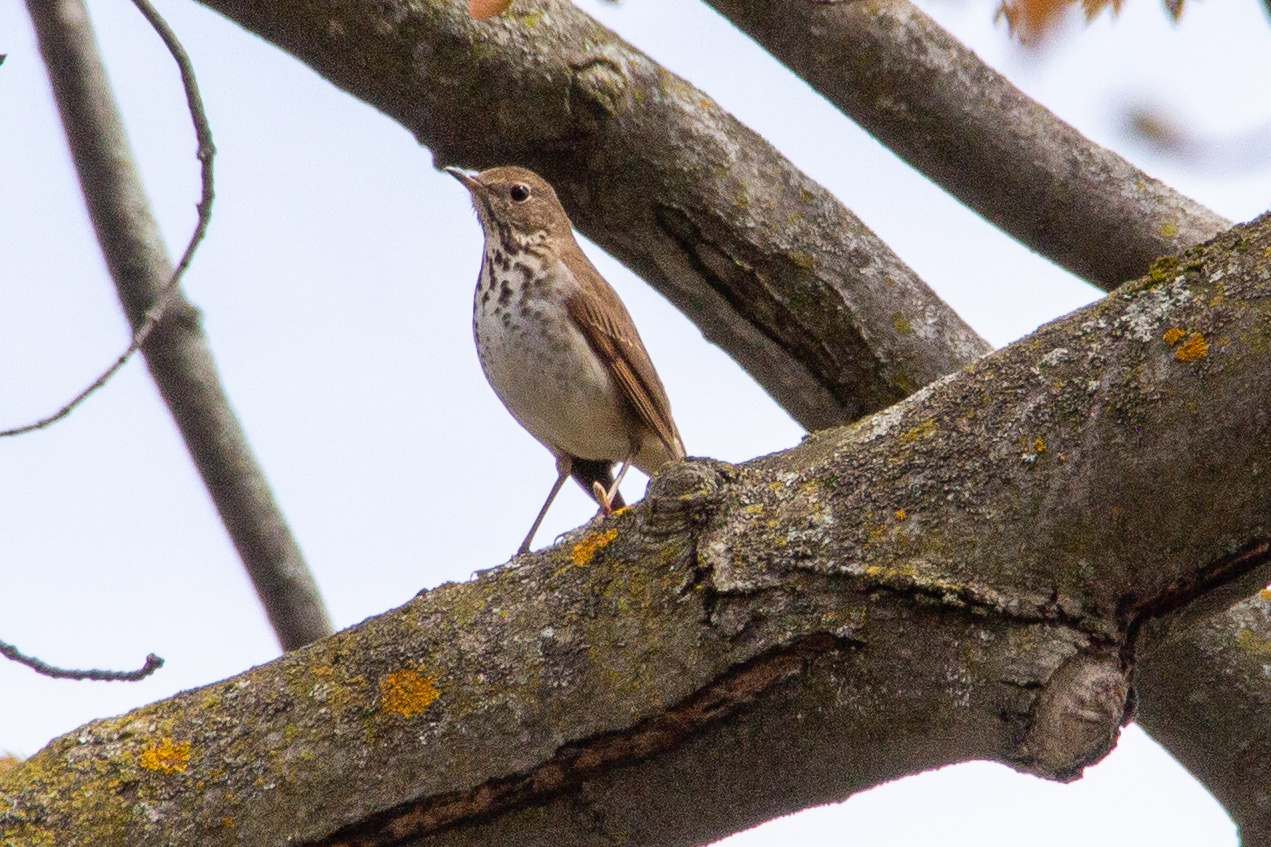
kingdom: Animalia
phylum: Chordata
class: Aves
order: Passeriformes
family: Turdidae
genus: Catharus
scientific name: Catharus guttatus
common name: Hermit thrush
